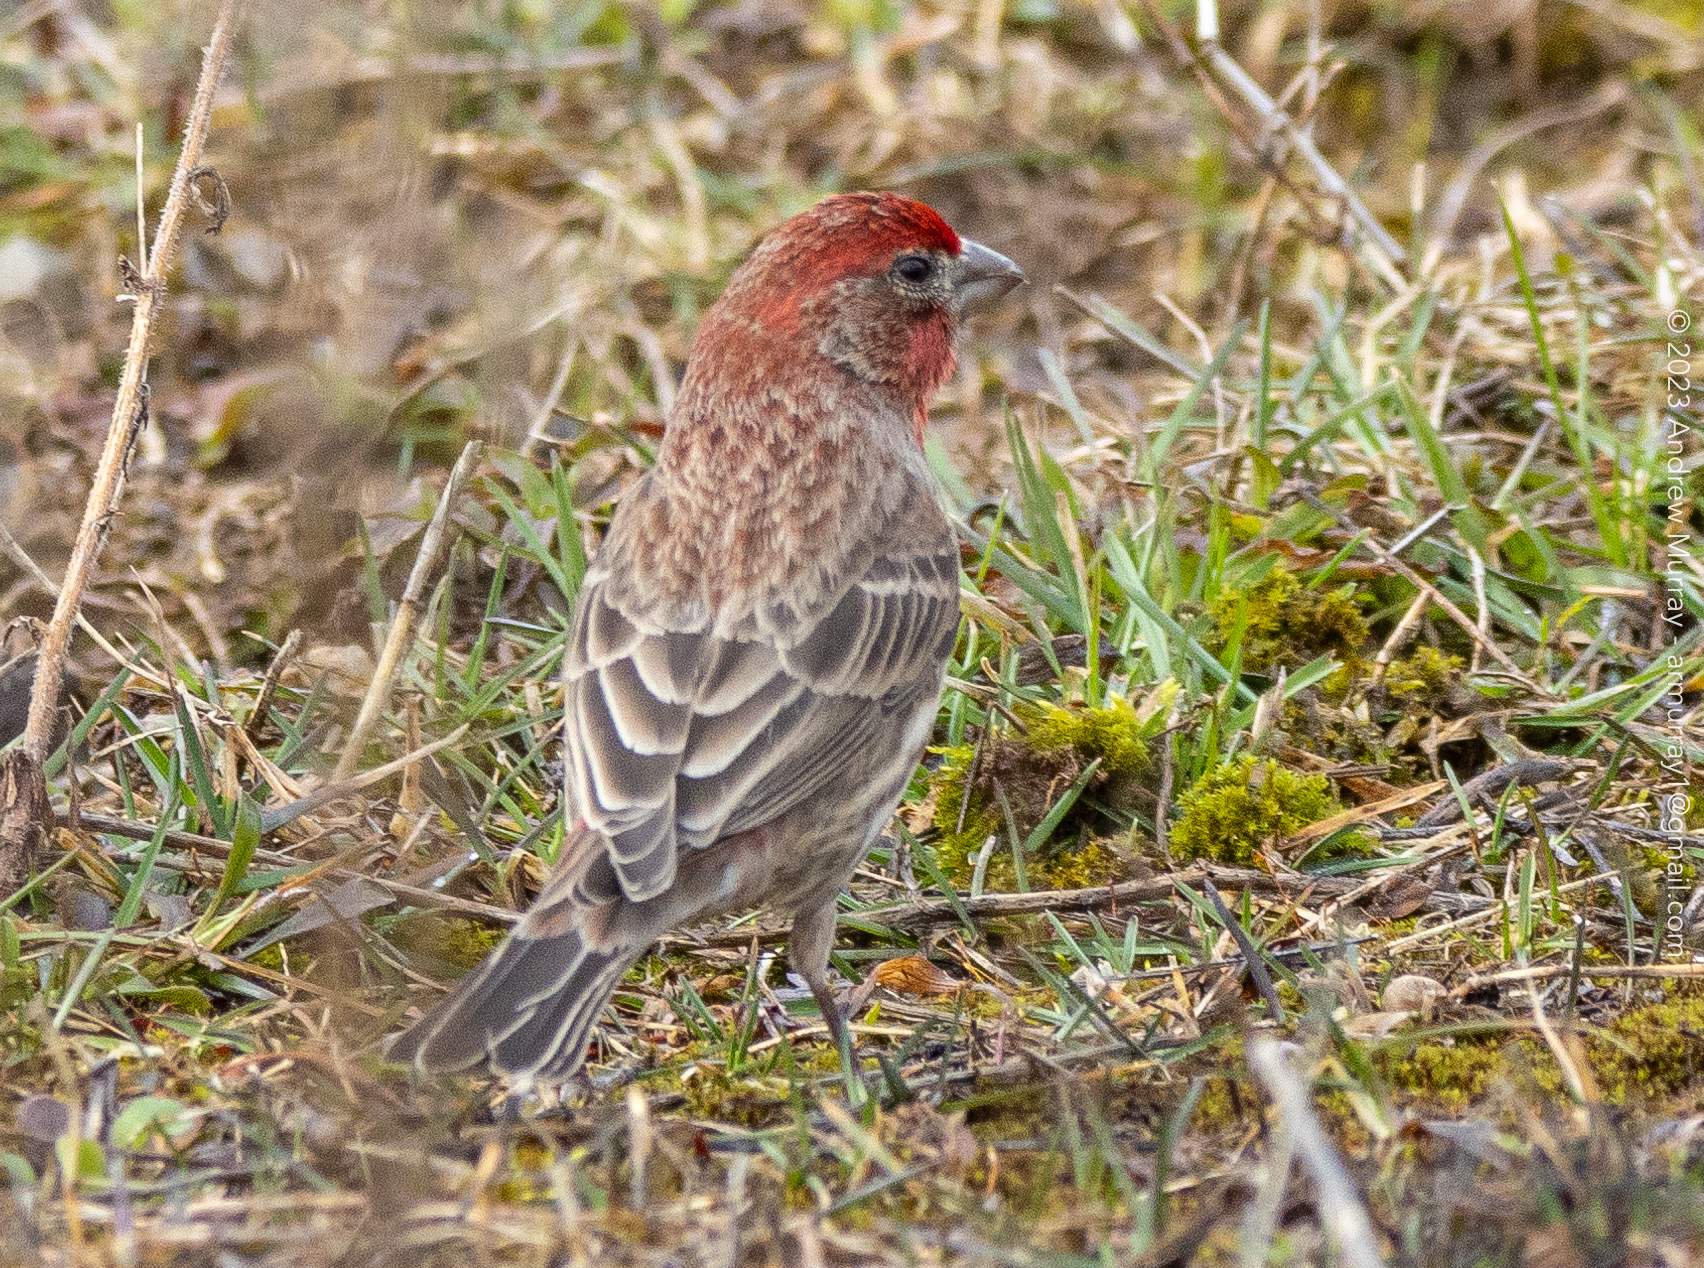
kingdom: Animalia
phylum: Chordata
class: Aves
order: Passeriformes
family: Fringillidae
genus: Haemorhous
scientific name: Haemorhous mexicanus
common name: House finch
